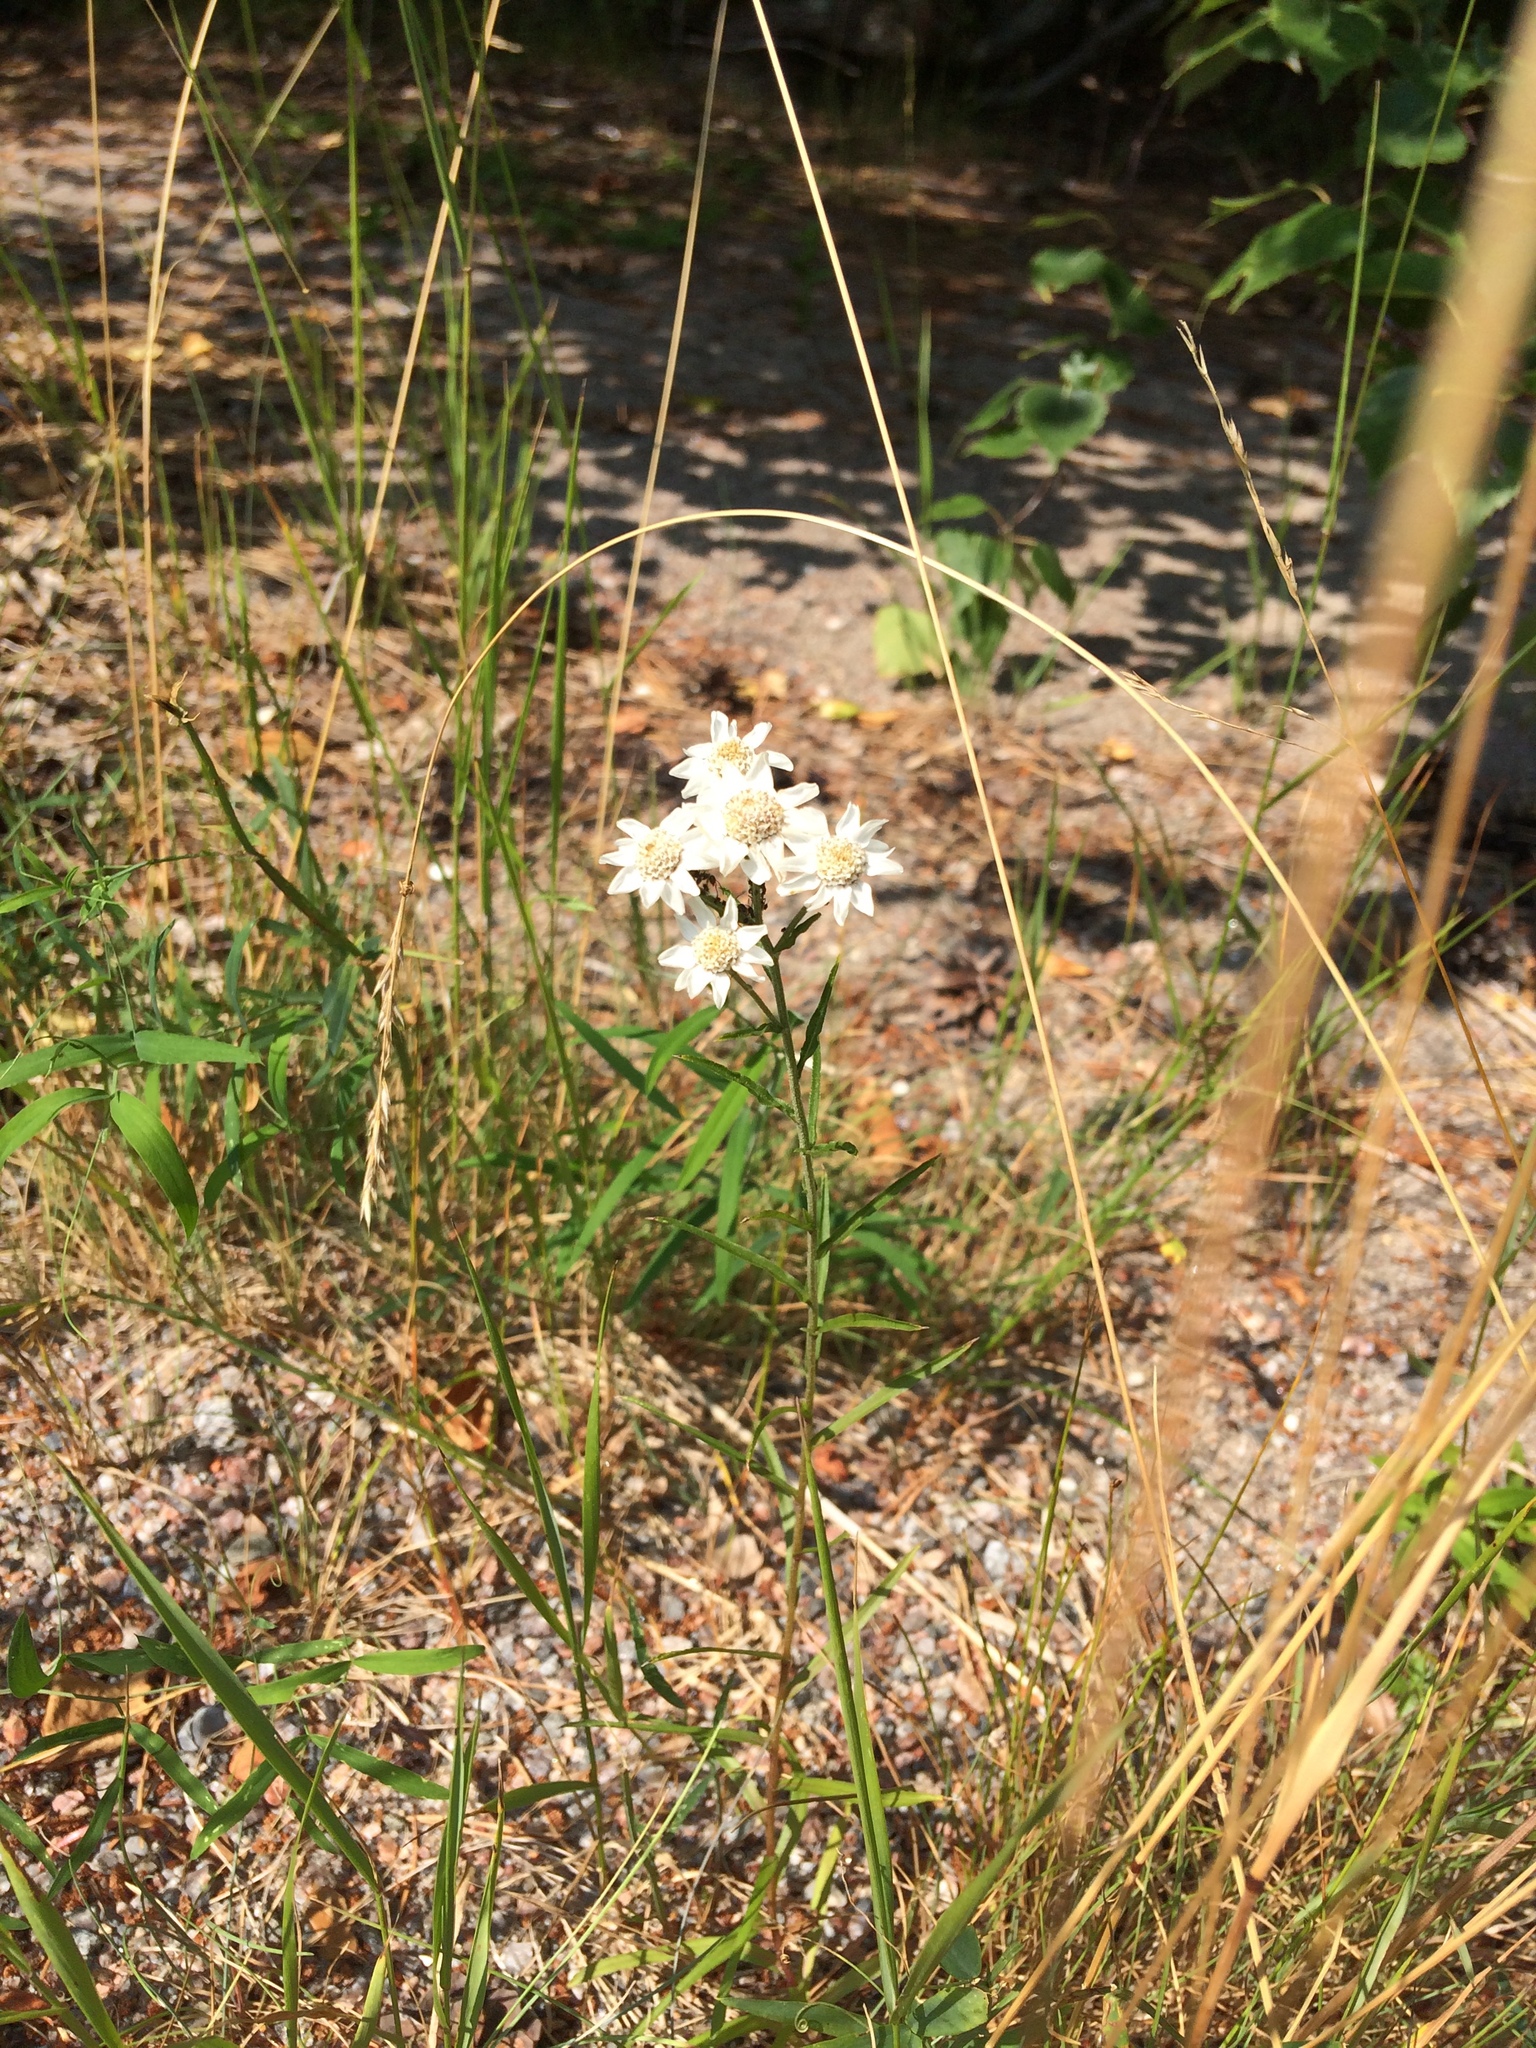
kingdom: Plantae
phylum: Tracheophyta
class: Magnoliopsida
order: Asterales
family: Asteraceae
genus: Achillea
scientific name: Achillea ptarmica
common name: Sneezeweed
